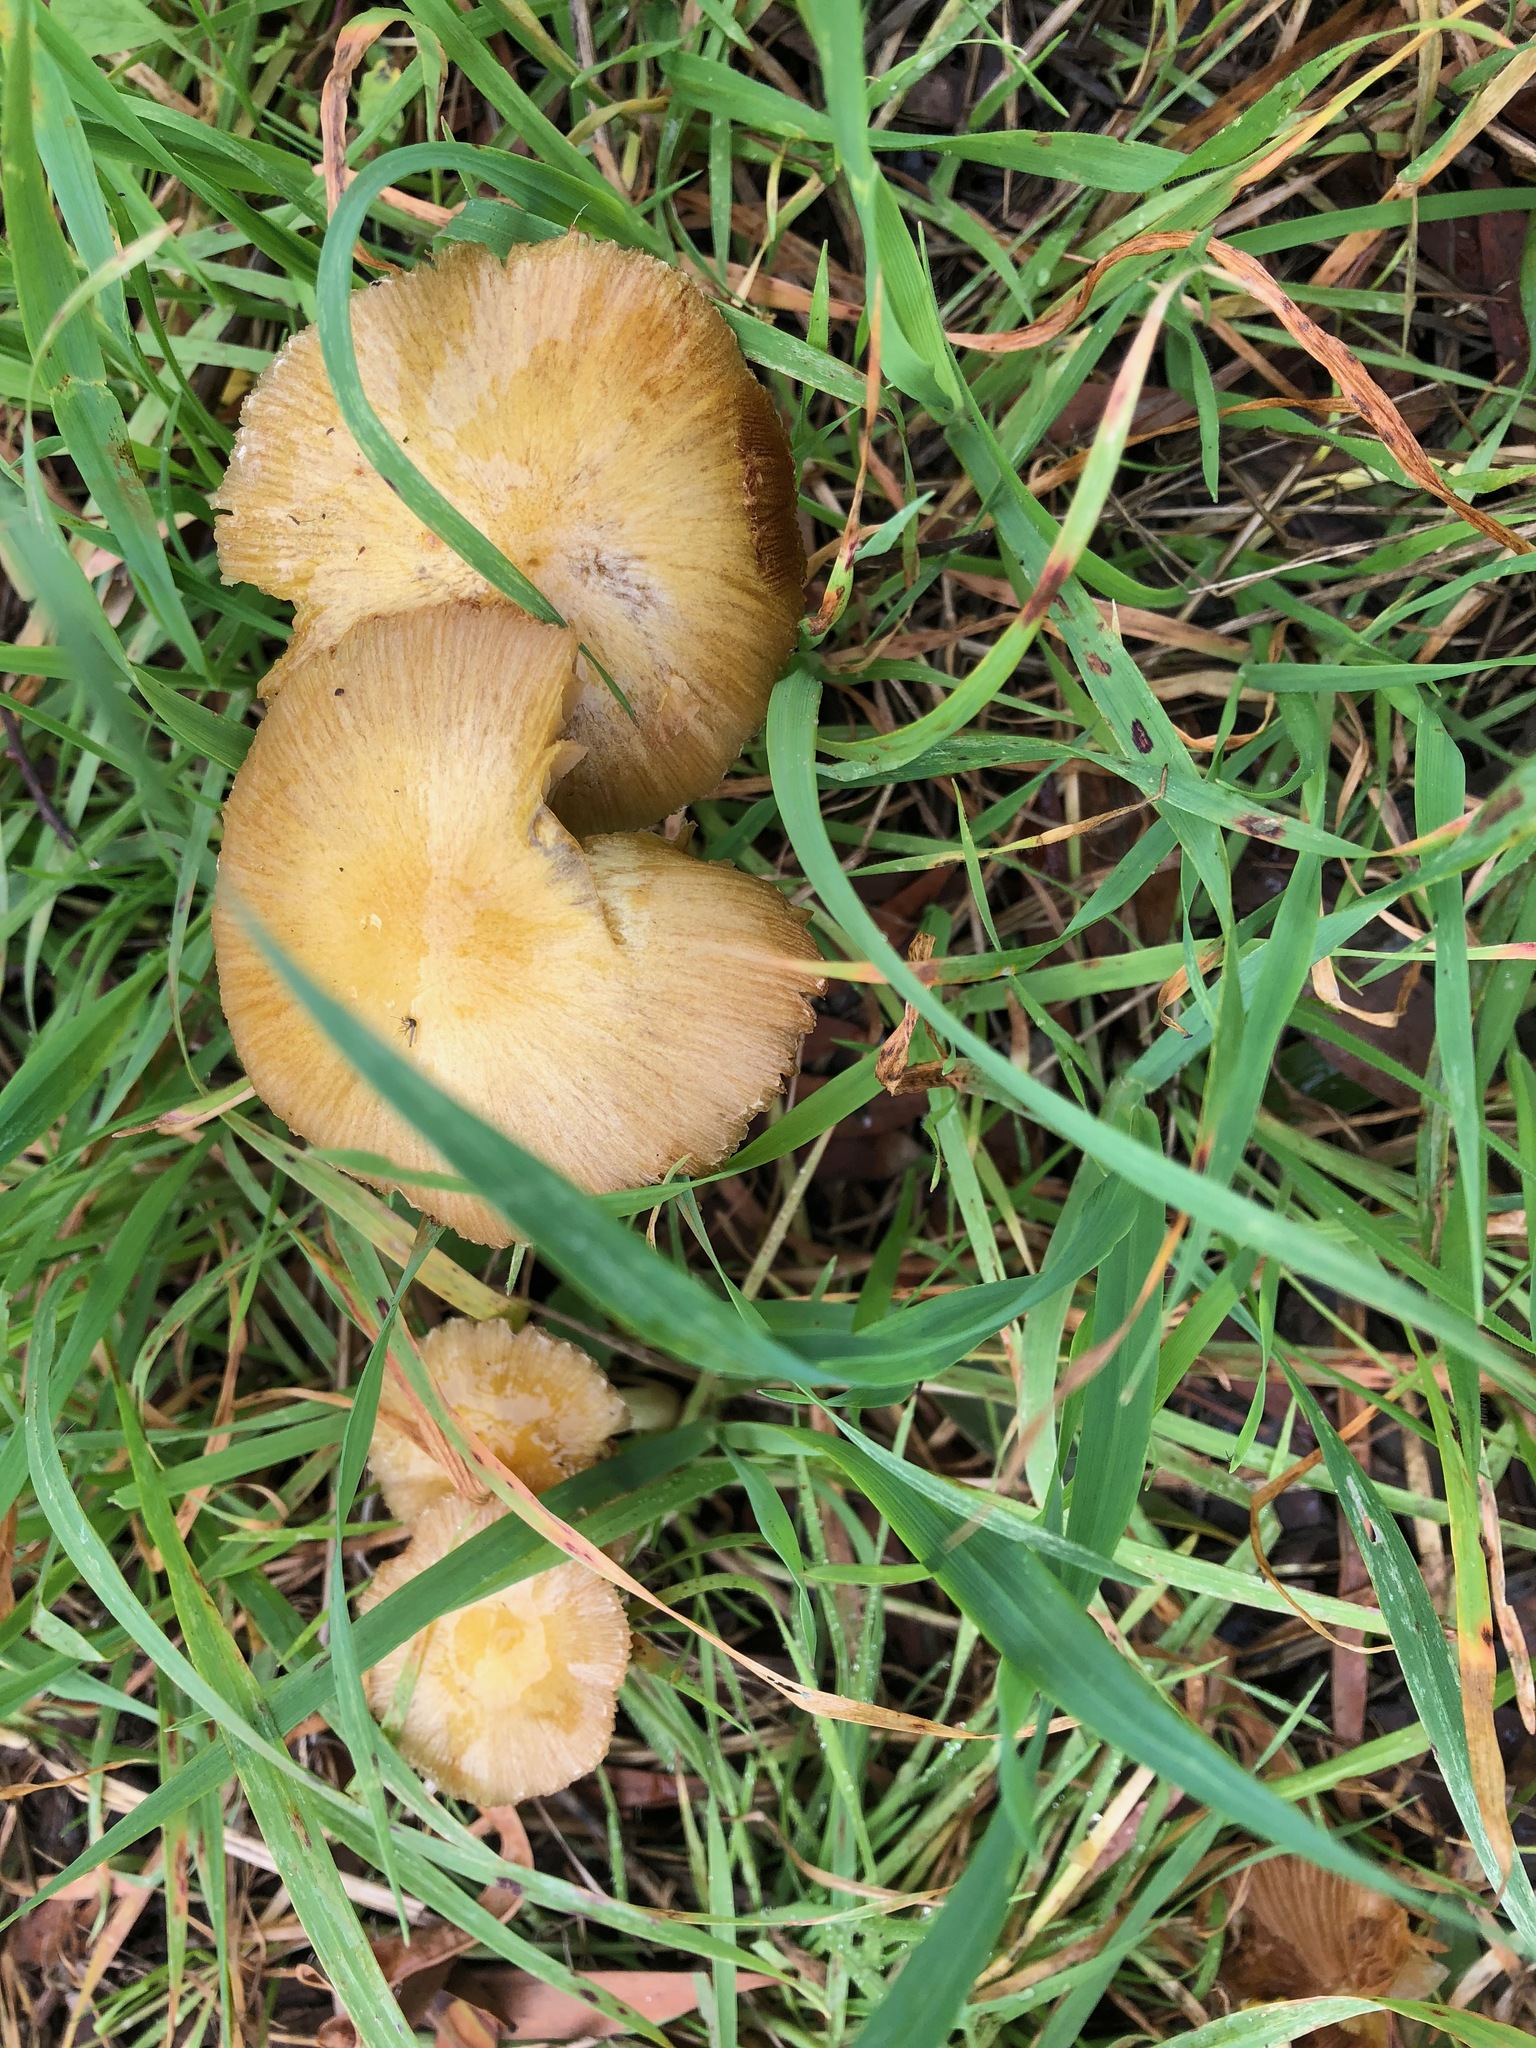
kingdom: Fungi
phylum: Basidiomycota
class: Agaricomycetes
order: Agaricales
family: Bolbitiaceae
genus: Bolbitius
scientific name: Bolbitius titubans
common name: Yellow fieldcap
